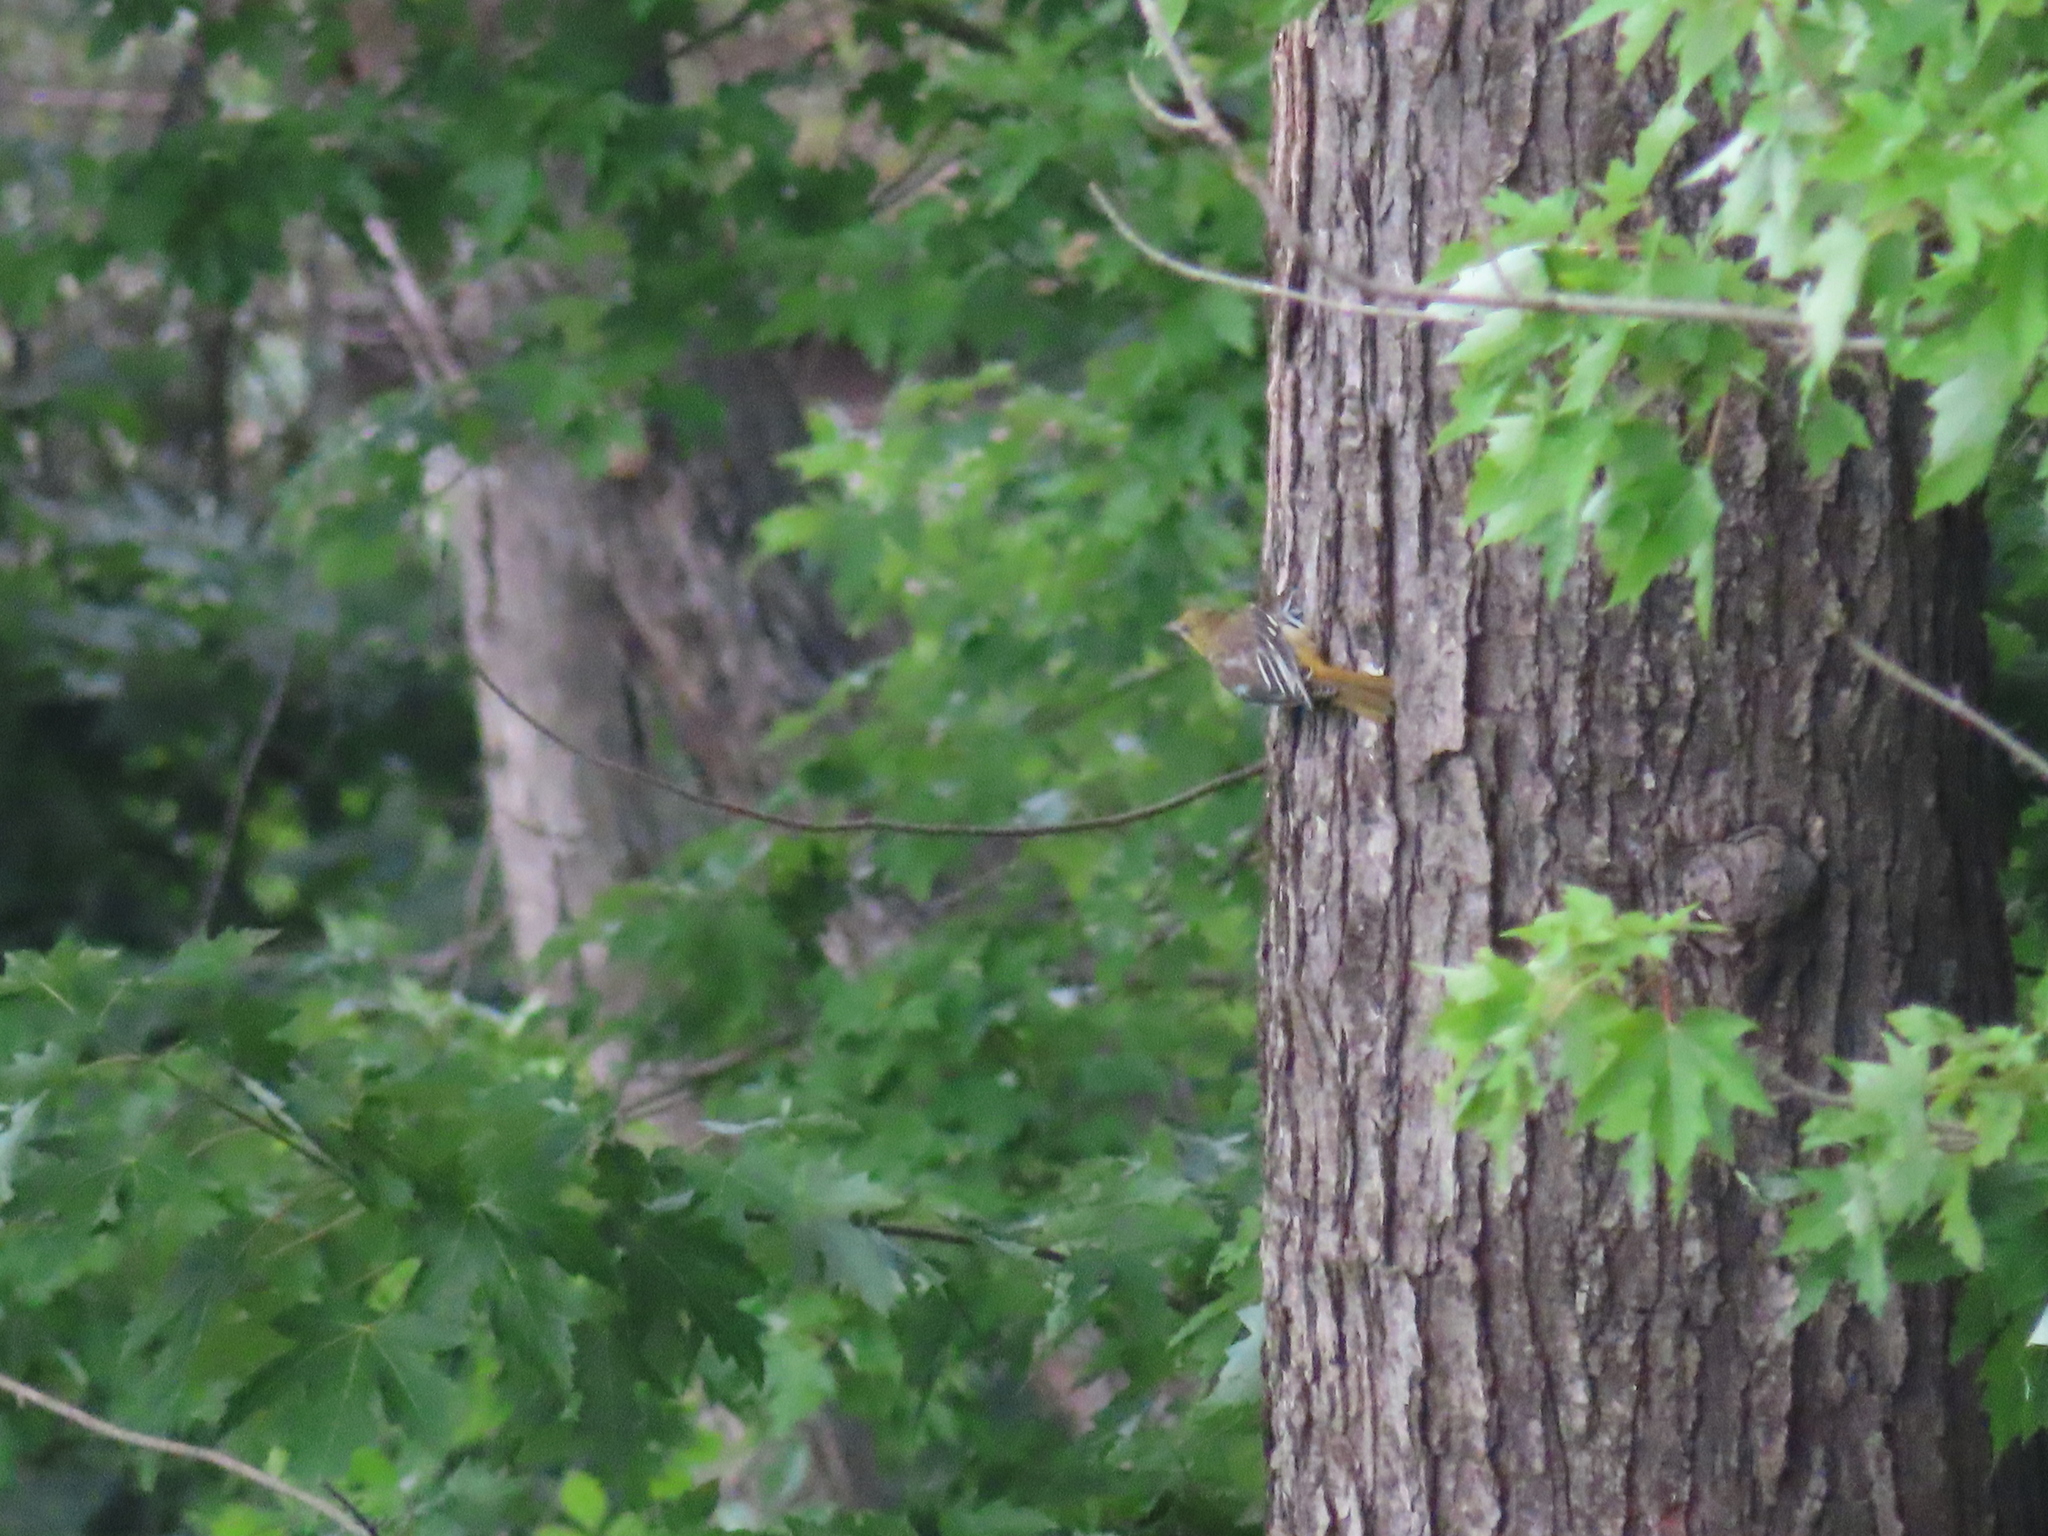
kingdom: Animalia
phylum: Chordata
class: Aves
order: Passeriformes
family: Icteridae
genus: Icterus
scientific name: Icterus galbula
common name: Baltimore oriole
